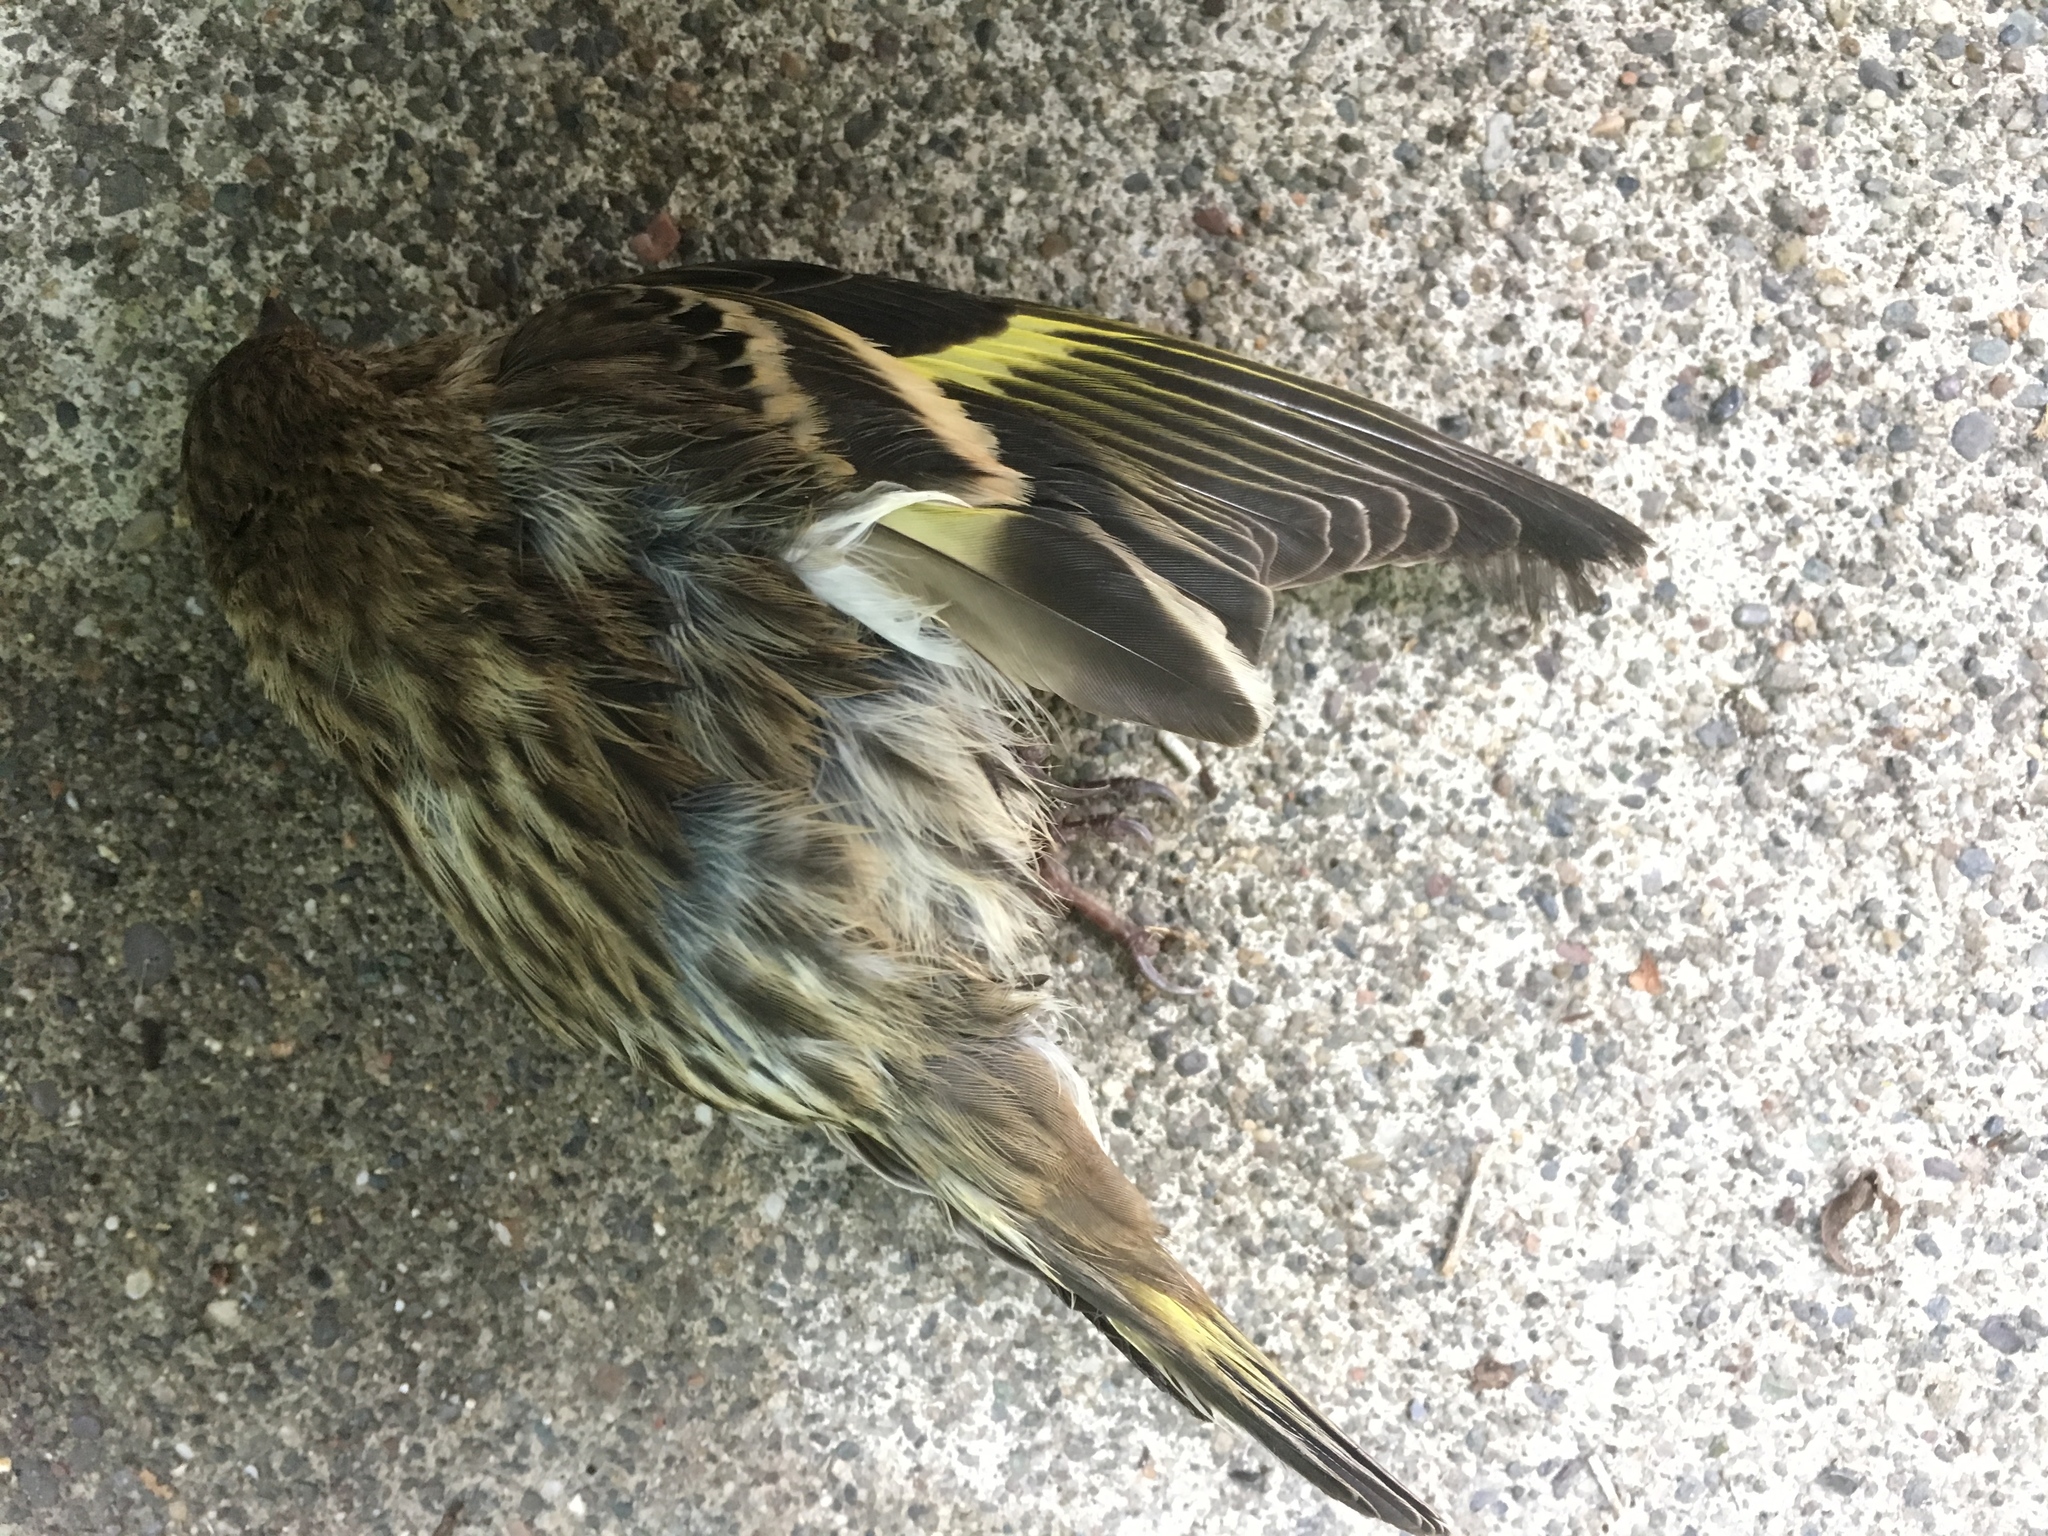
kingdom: Animalia
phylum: Chordata
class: Aves
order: Passeriformes
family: Fringillidae
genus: Spinus
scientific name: Spinus pinus
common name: Pine siskin
